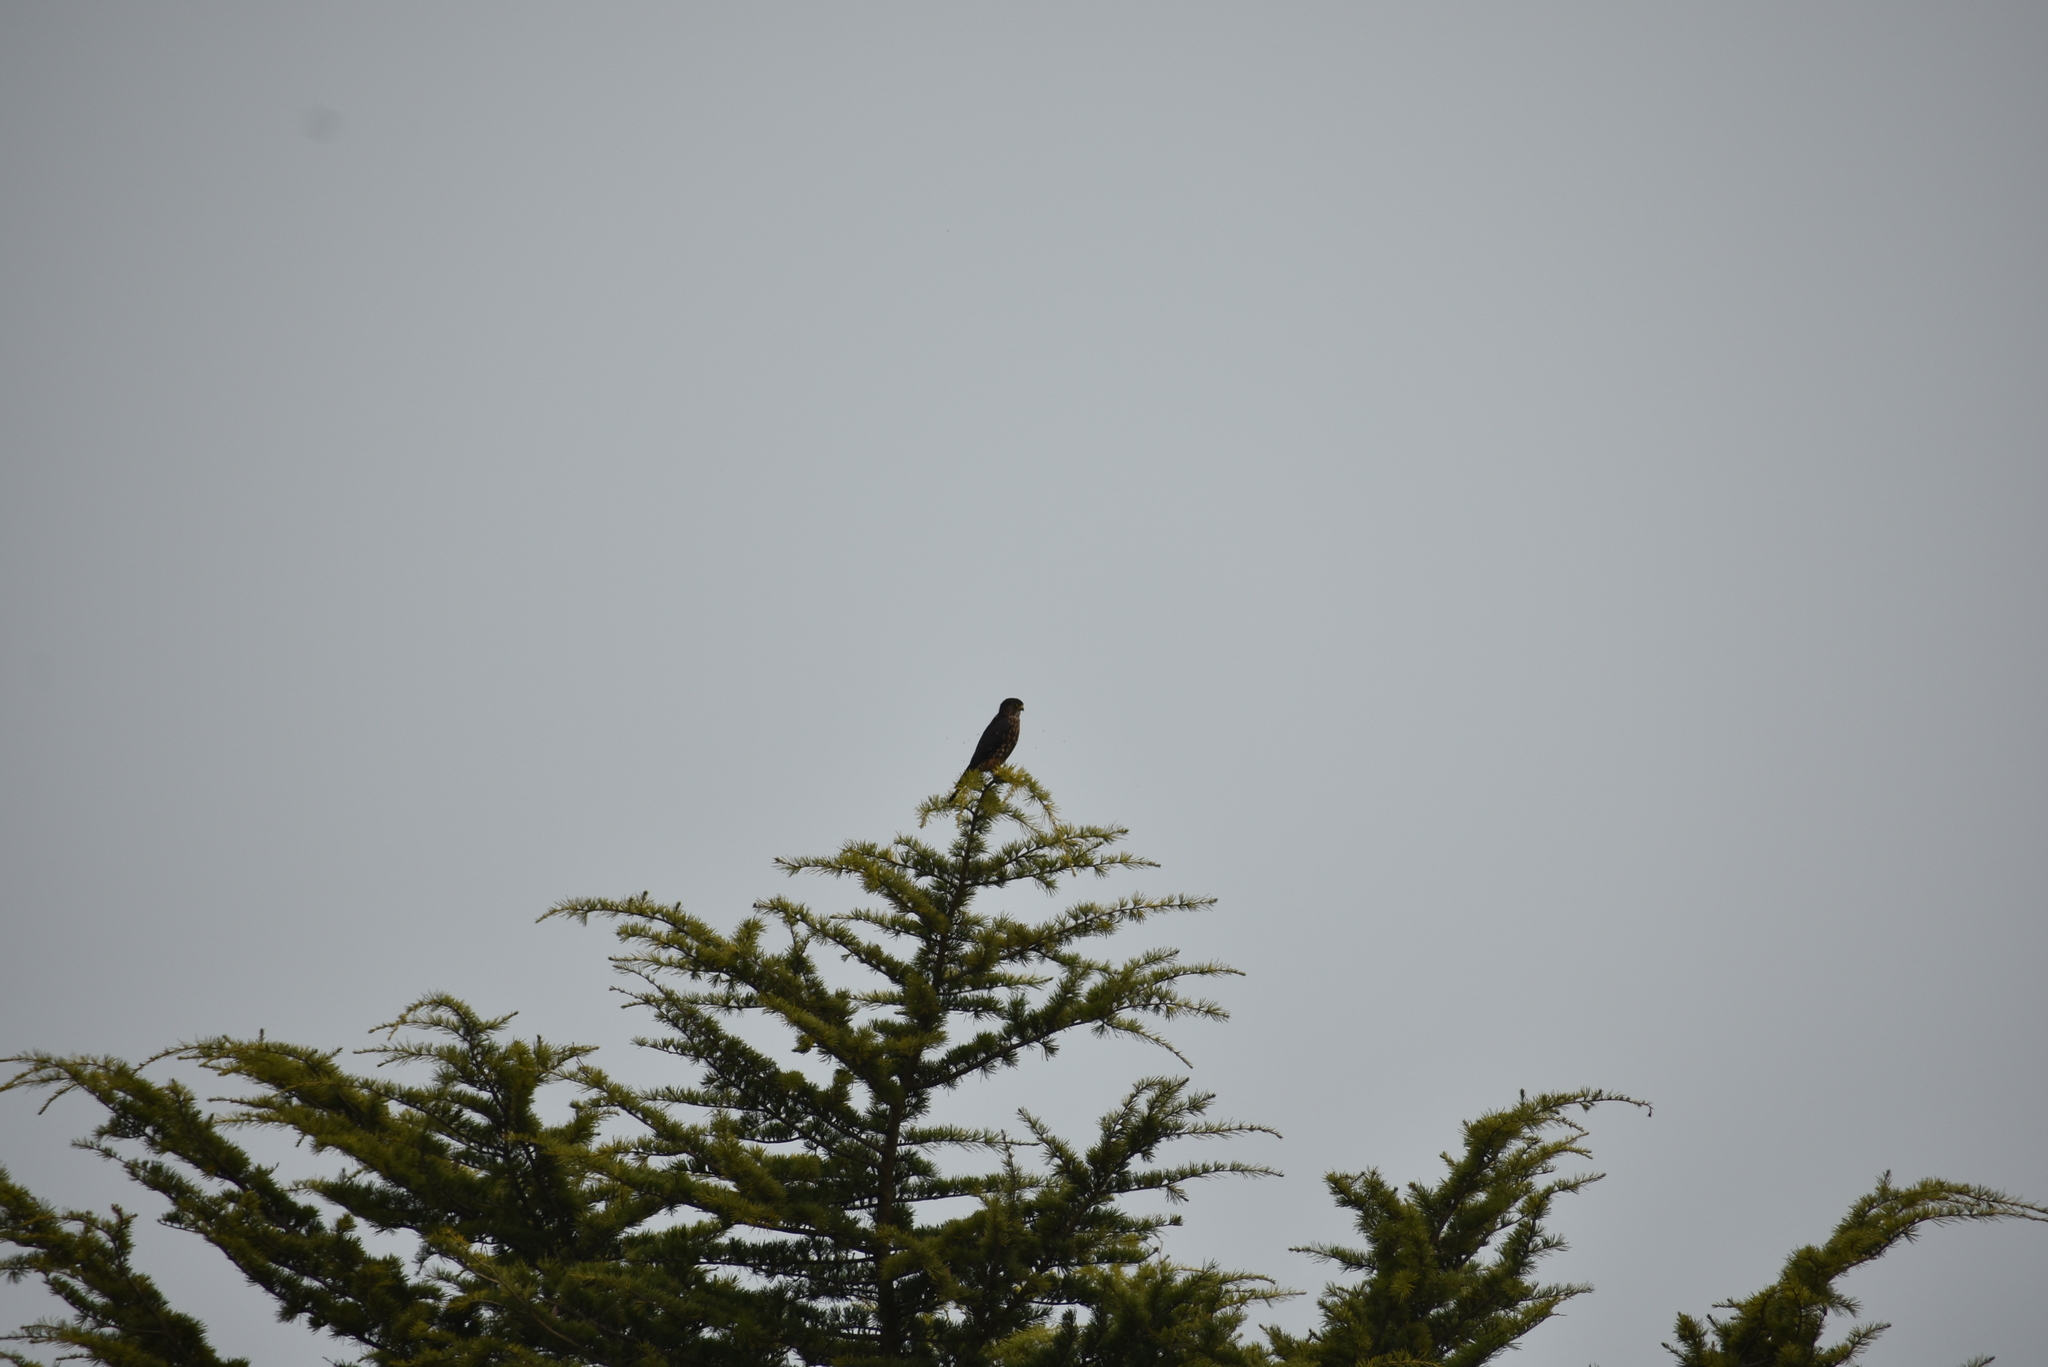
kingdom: Animalia
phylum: Chordata
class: Aves
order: Falconiformes
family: Falconidae
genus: Falco
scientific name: Falco columbarius
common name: Merlin
